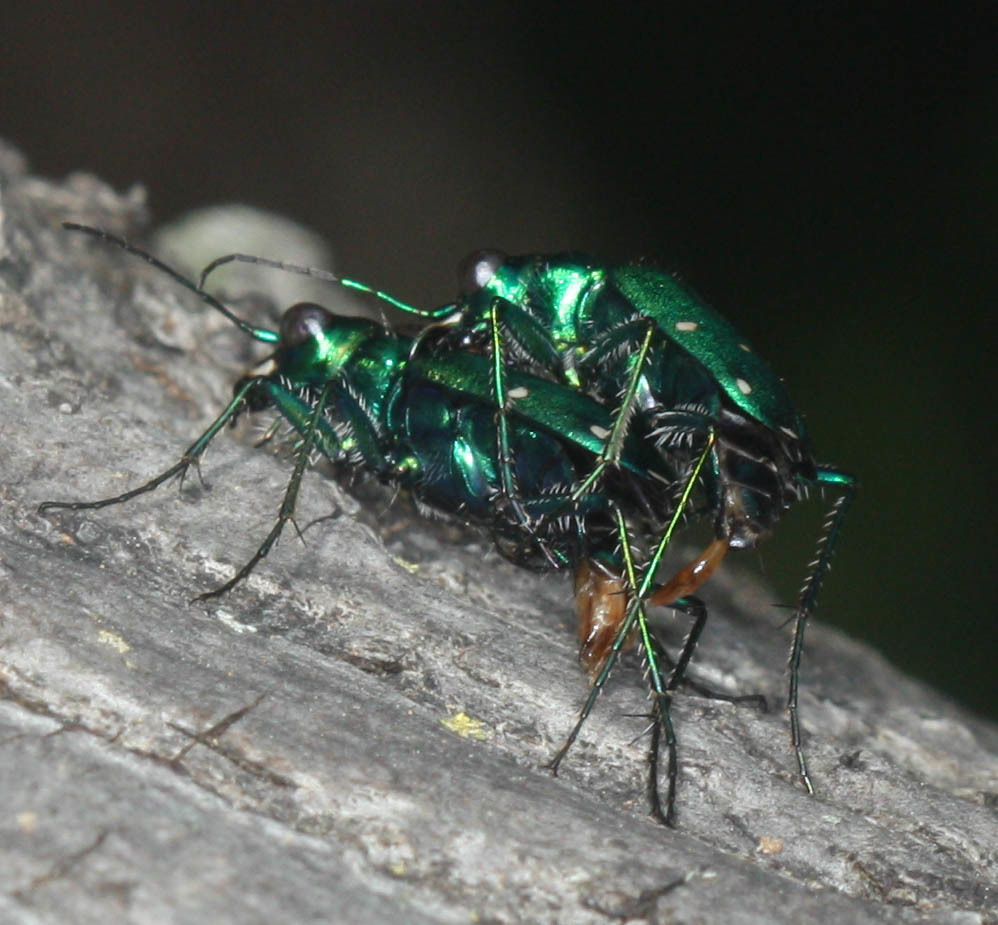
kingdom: Animalia
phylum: Arthropoda
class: Insecta
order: Coleoptera
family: Carabidae
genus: Cicindela
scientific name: Cicindela sexguttata
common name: Six-spotted tiger beetle
